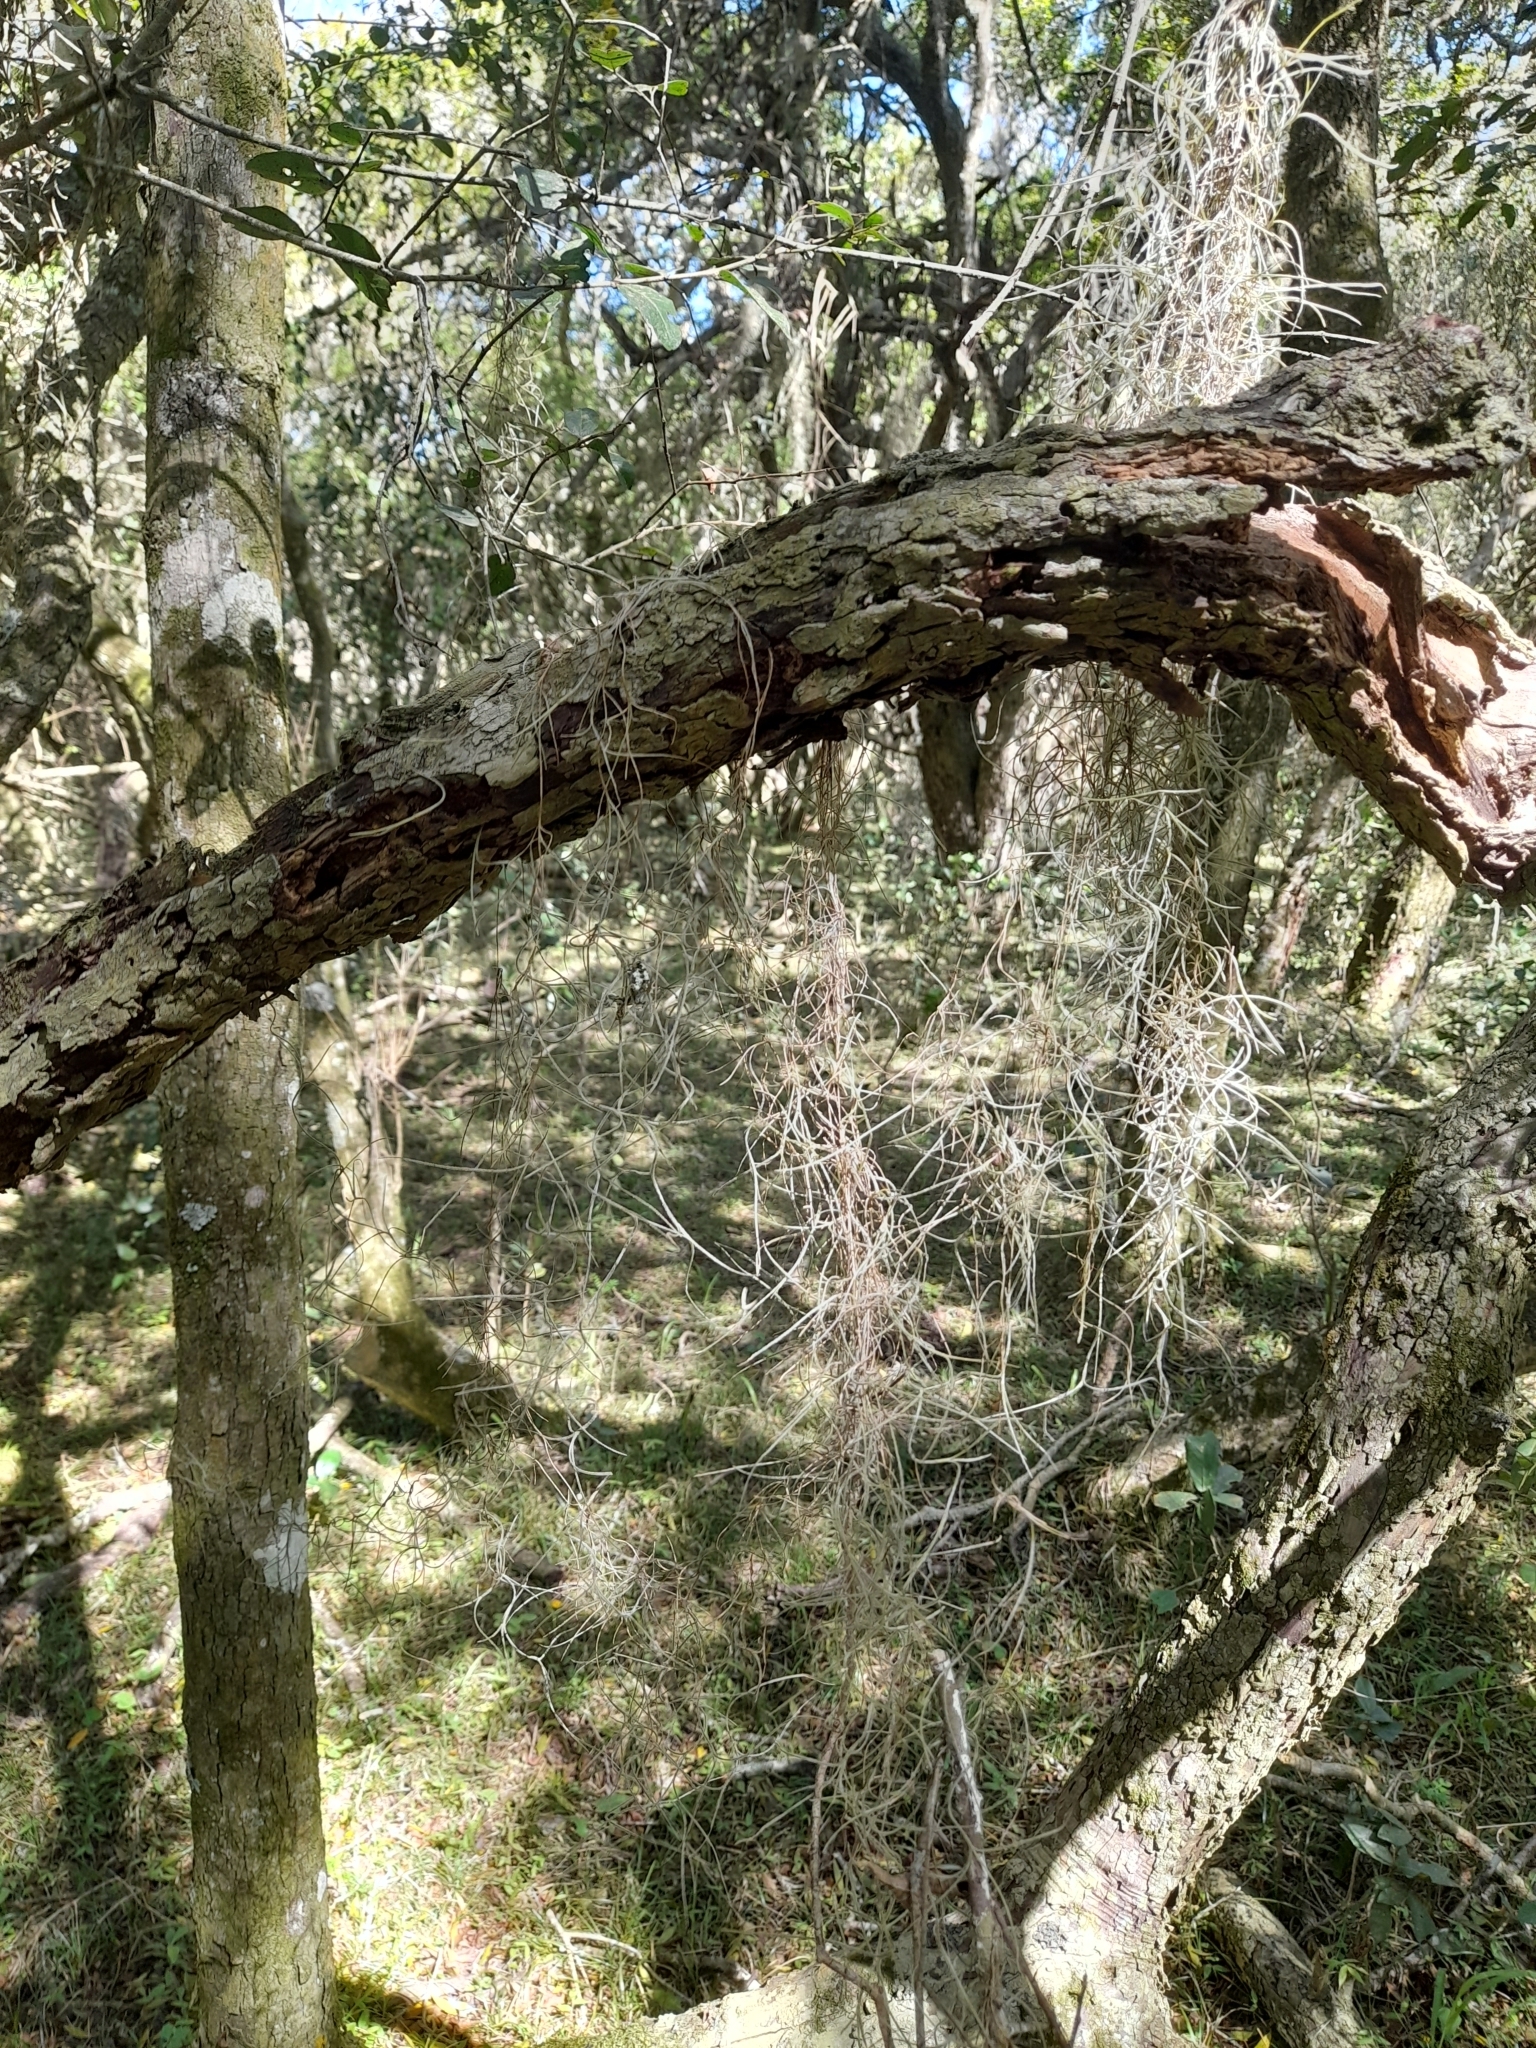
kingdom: Plantae
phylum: Tracheophyta
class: Liliopsida
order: Poales
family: Bromeliaceae
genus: Tillandsia
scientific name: Tillandsia usneoides
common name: Spanish moss
